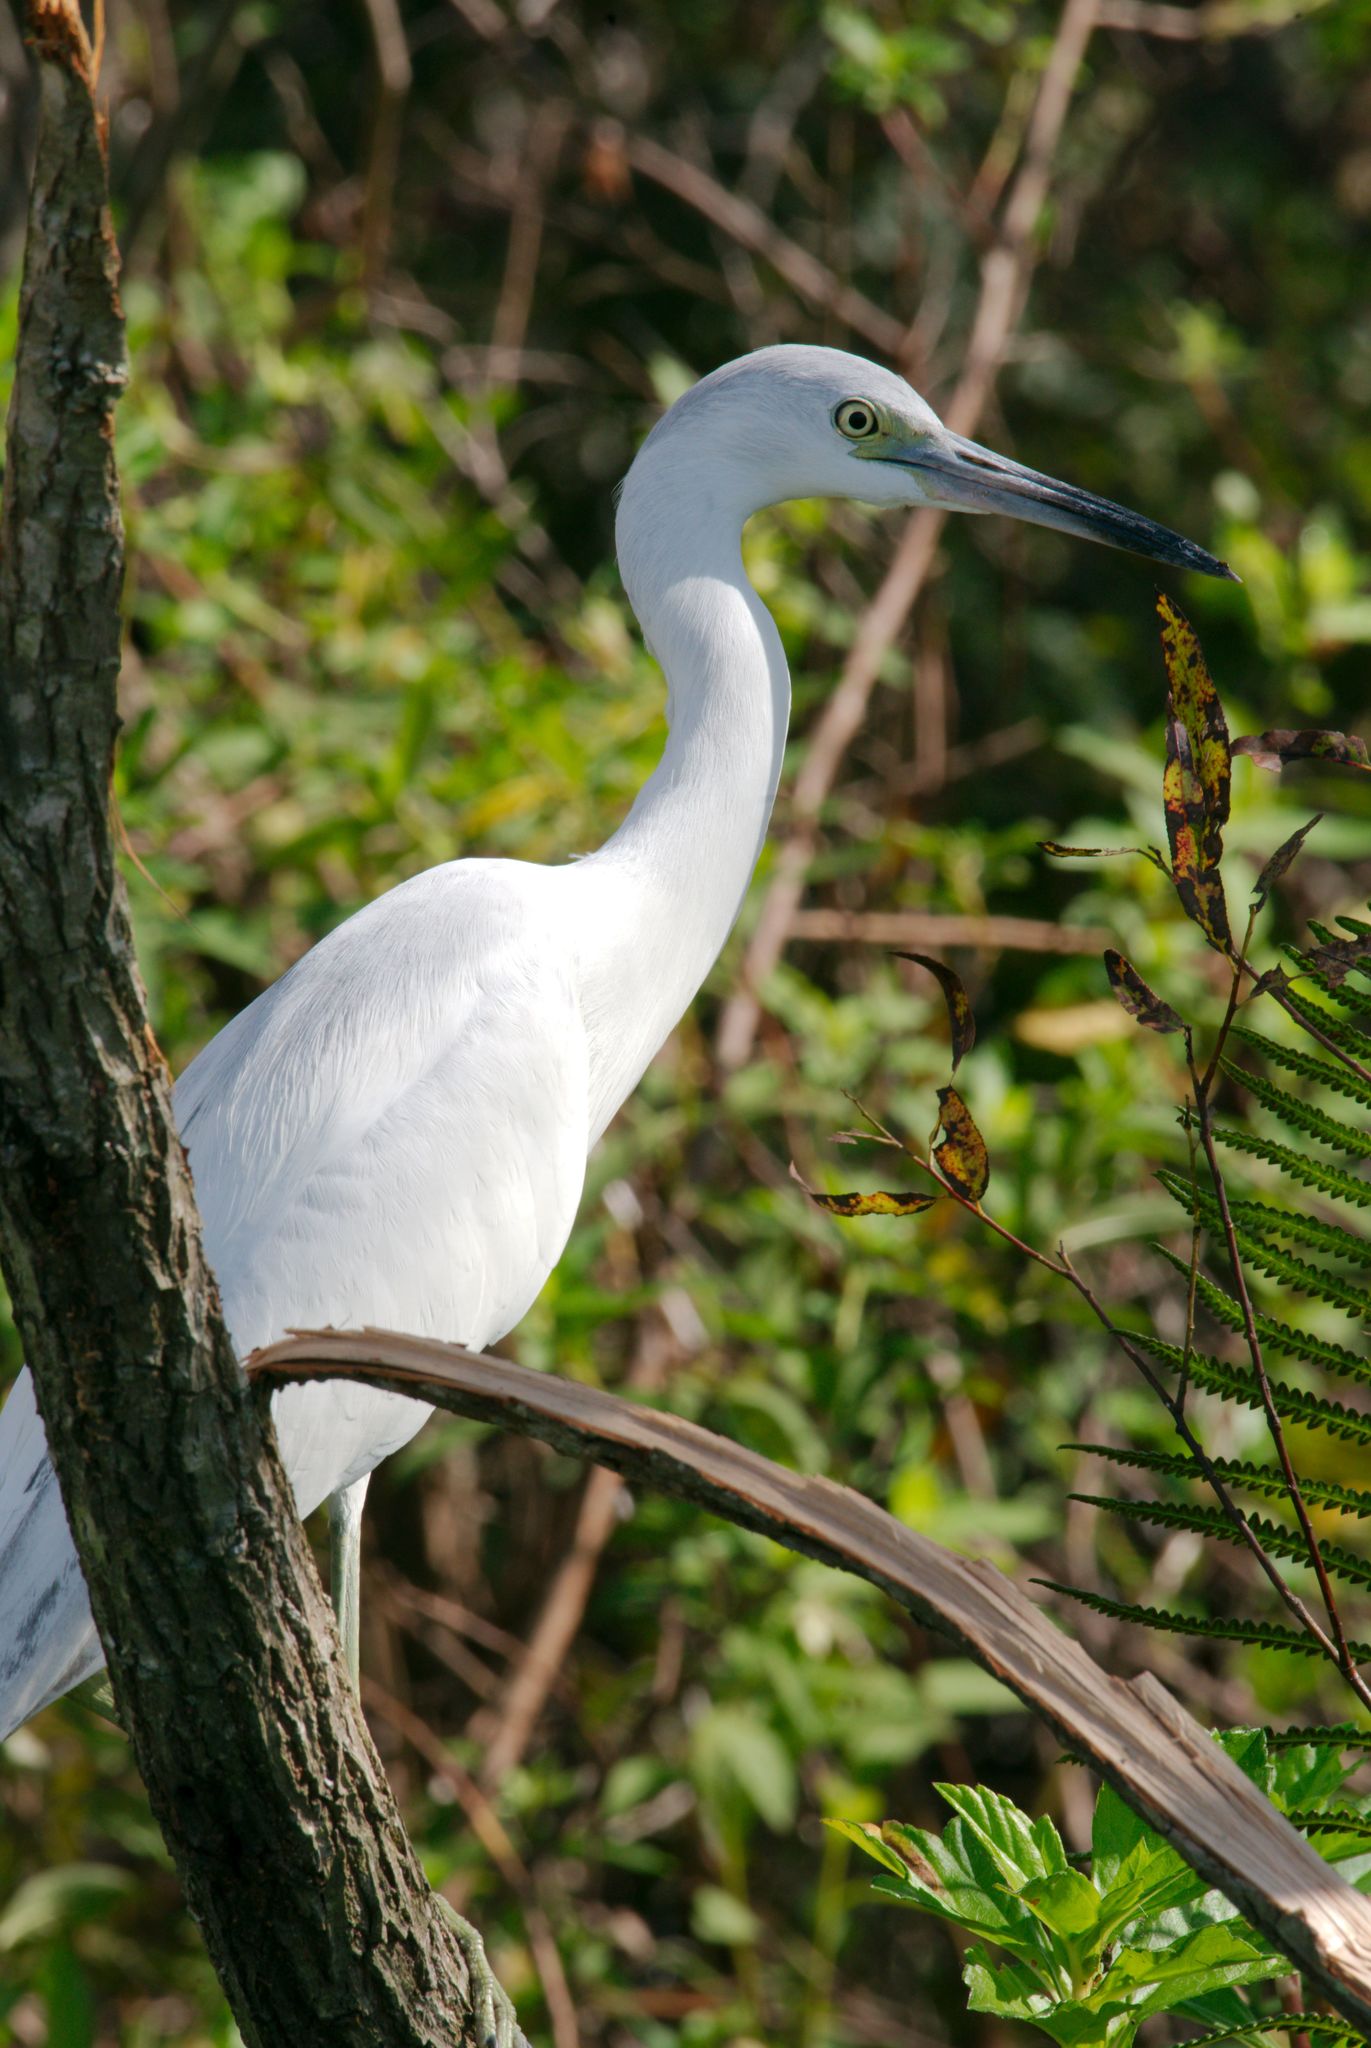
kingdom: Animalia
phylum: Chordata
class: Aves
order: Pelecaniformes
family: Ardeidae
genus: Egretta
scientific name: Egretta caerulea
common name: Little blue heron
